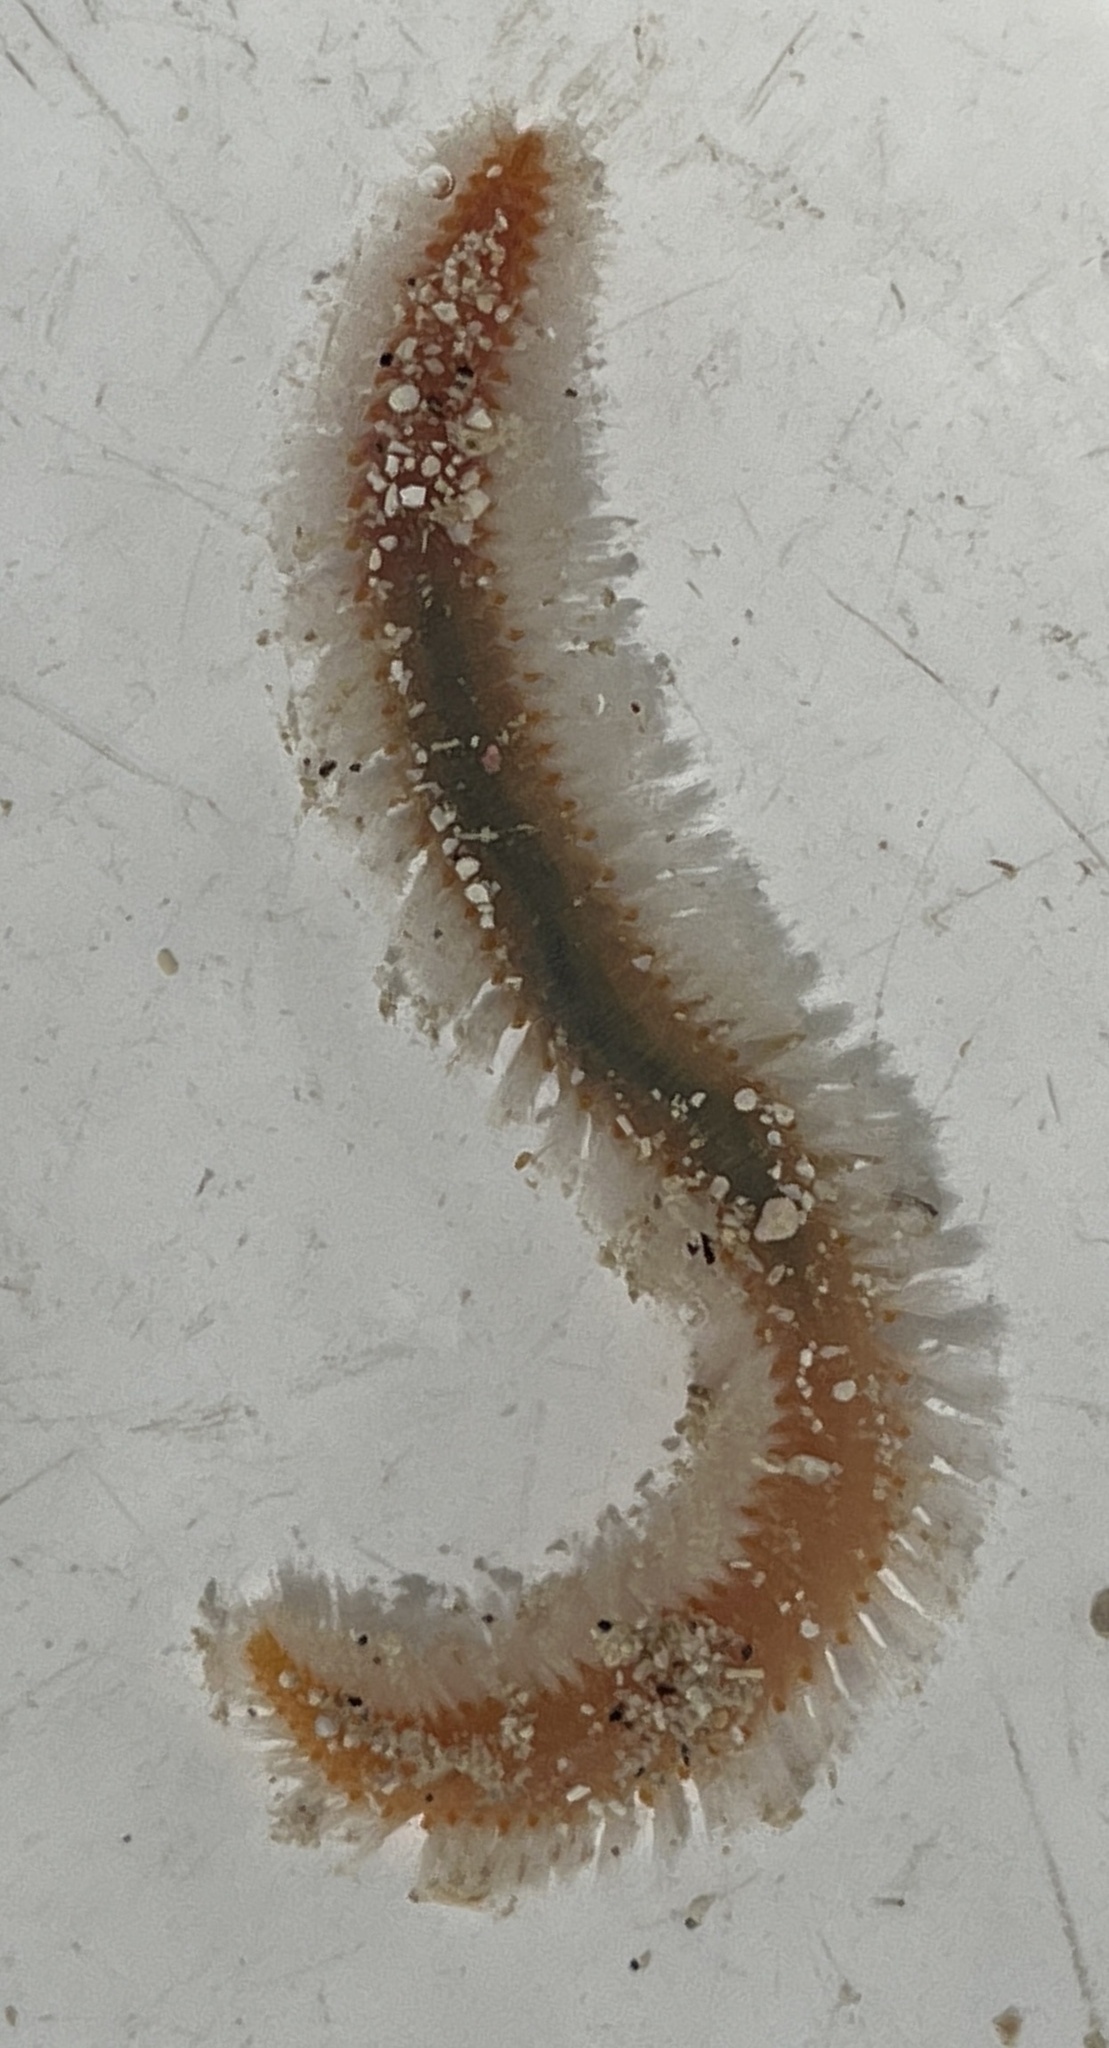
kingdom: Animalia
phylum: Annelida
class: Polychaeta
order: Amphinomida
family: Amphinomidae
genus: Eurythoe
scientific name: Eurythoe complanata
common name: Fireworm
